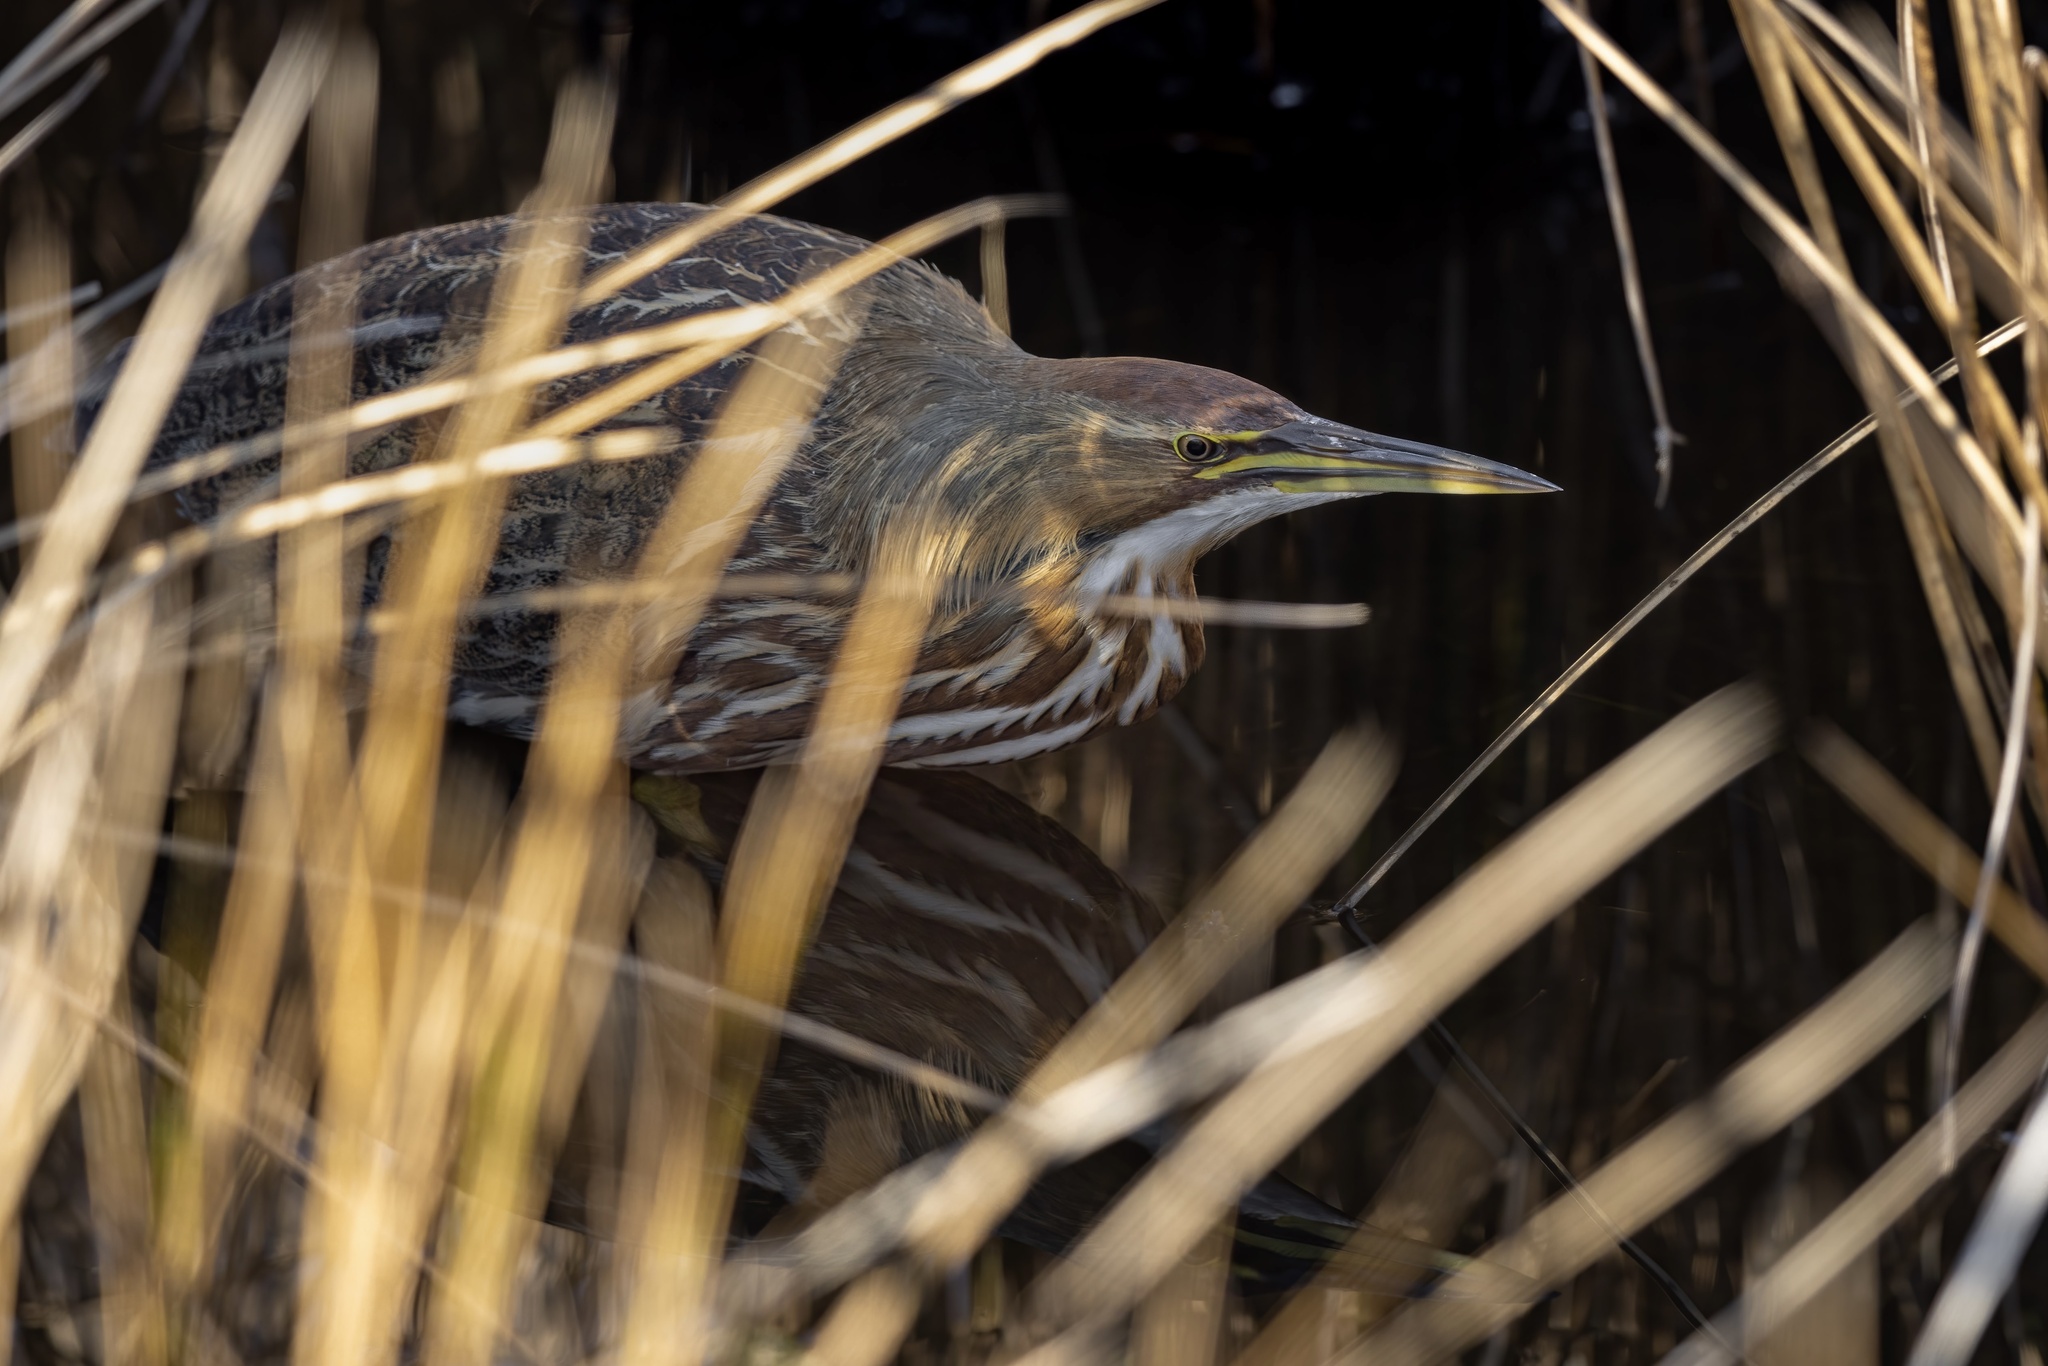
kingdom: Animalia
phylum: Chordata
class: Aves
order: Pelecaniformes
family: Ardeidae
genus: Botaurus
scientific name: Botaurus lentiginosus
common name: American bittern
